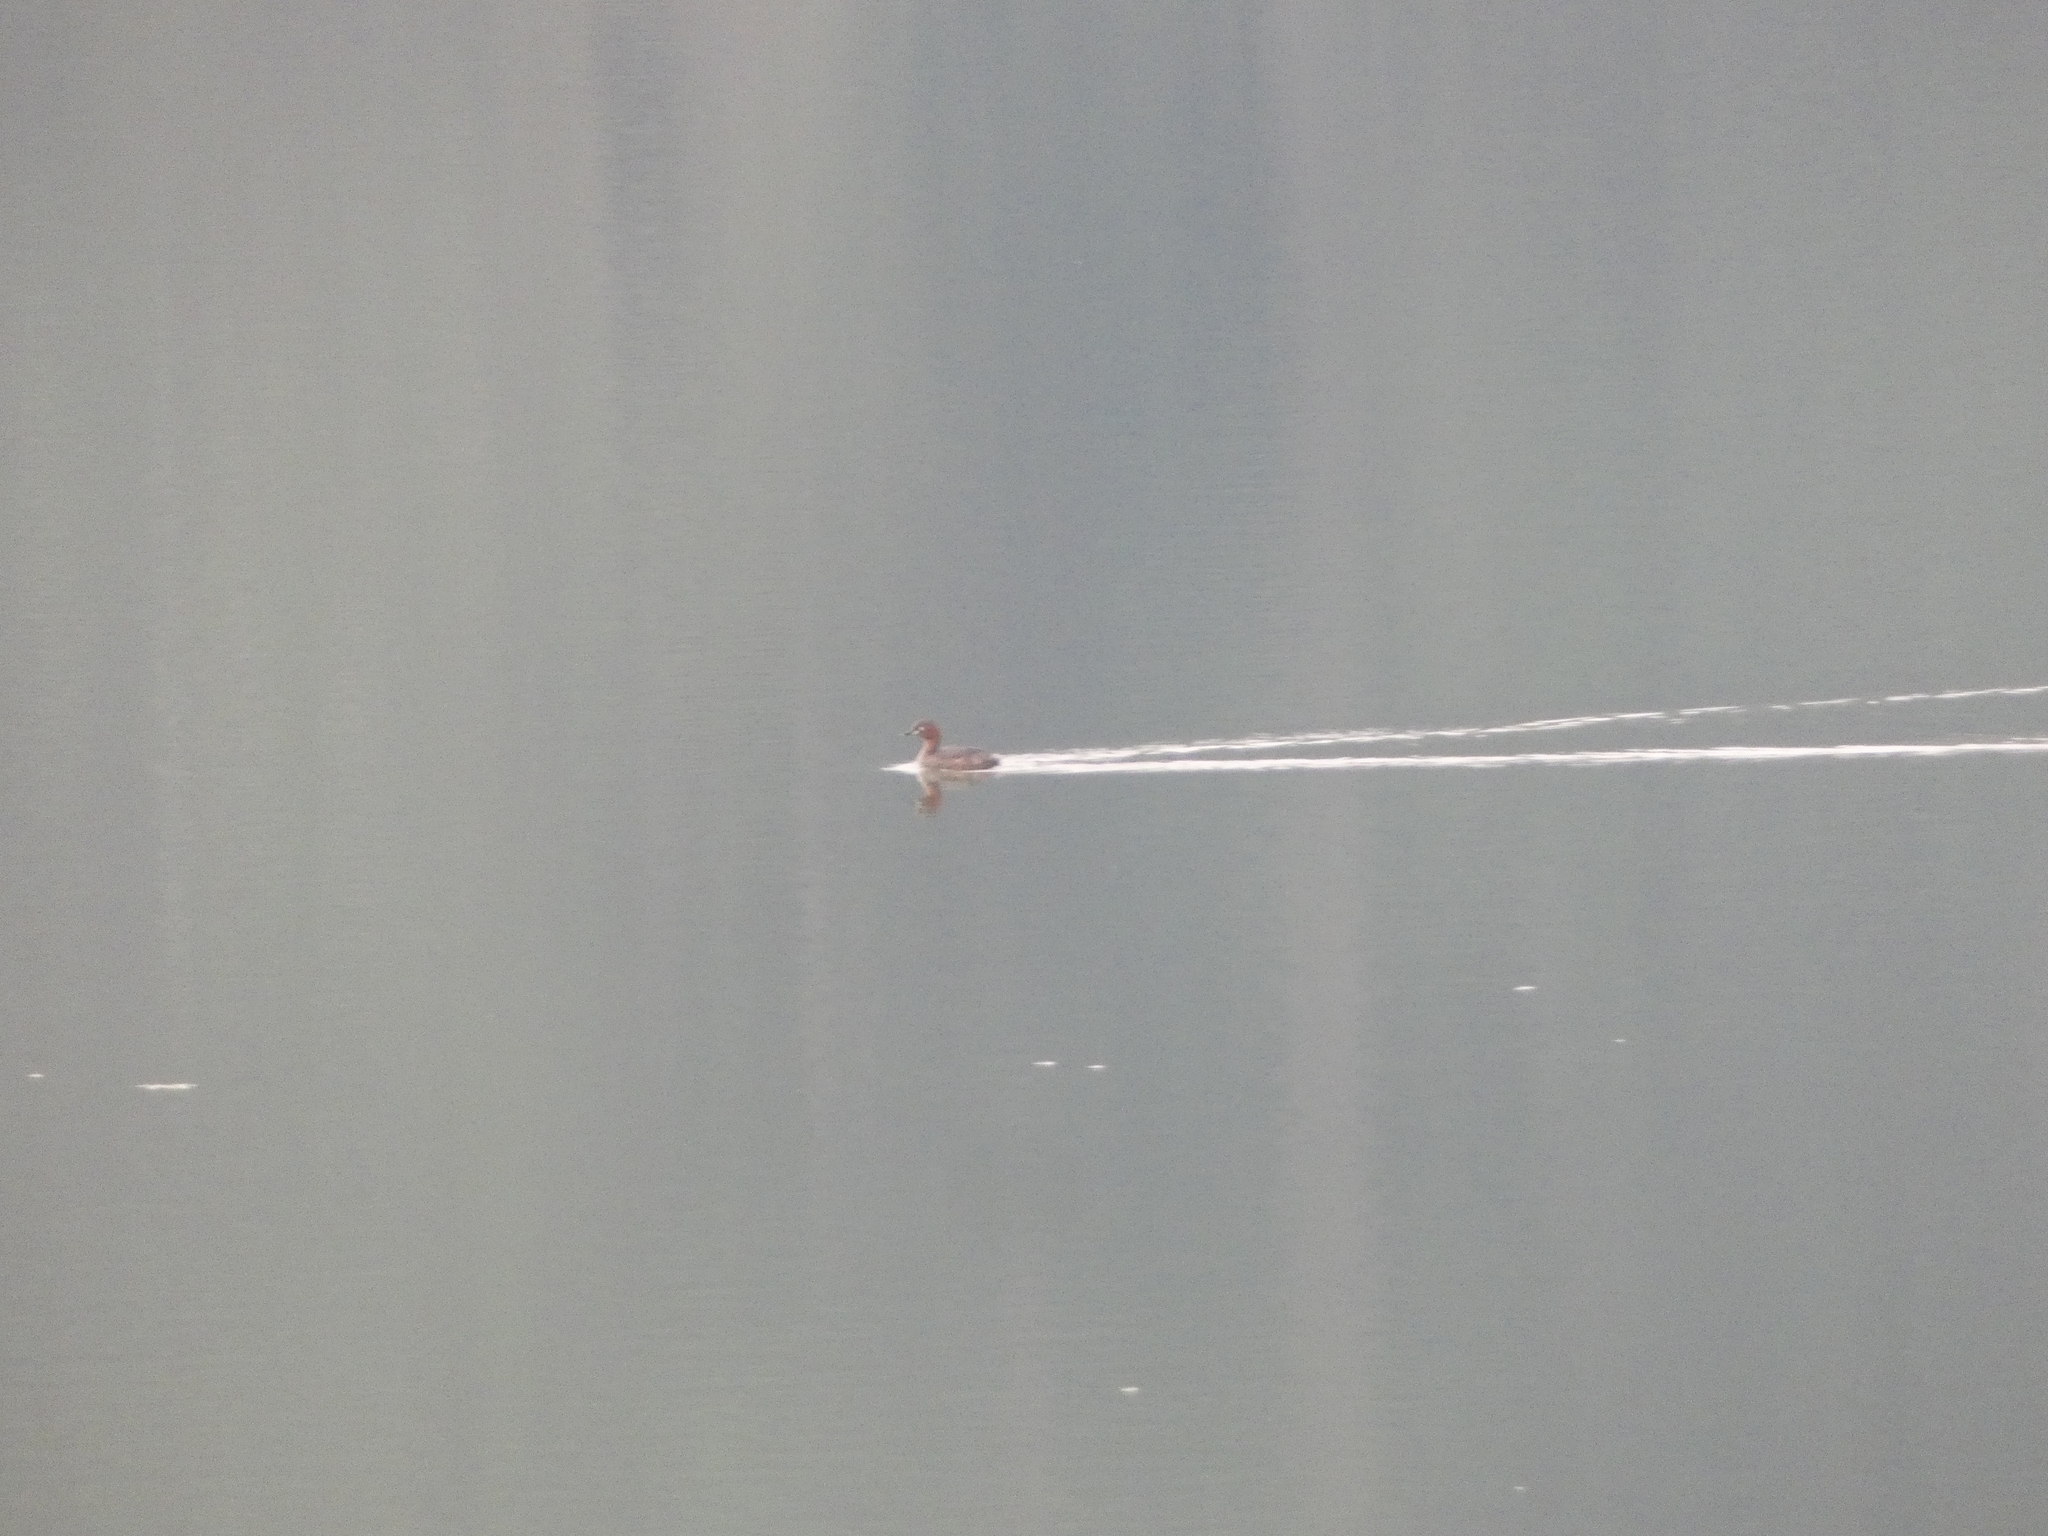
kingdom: Animalia
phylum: Chordata
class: Aves
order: Podicipediformes
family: Podicipedidae
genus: Tachybaptus
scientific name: Tachybaptus ruficollis
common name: Little grebe
